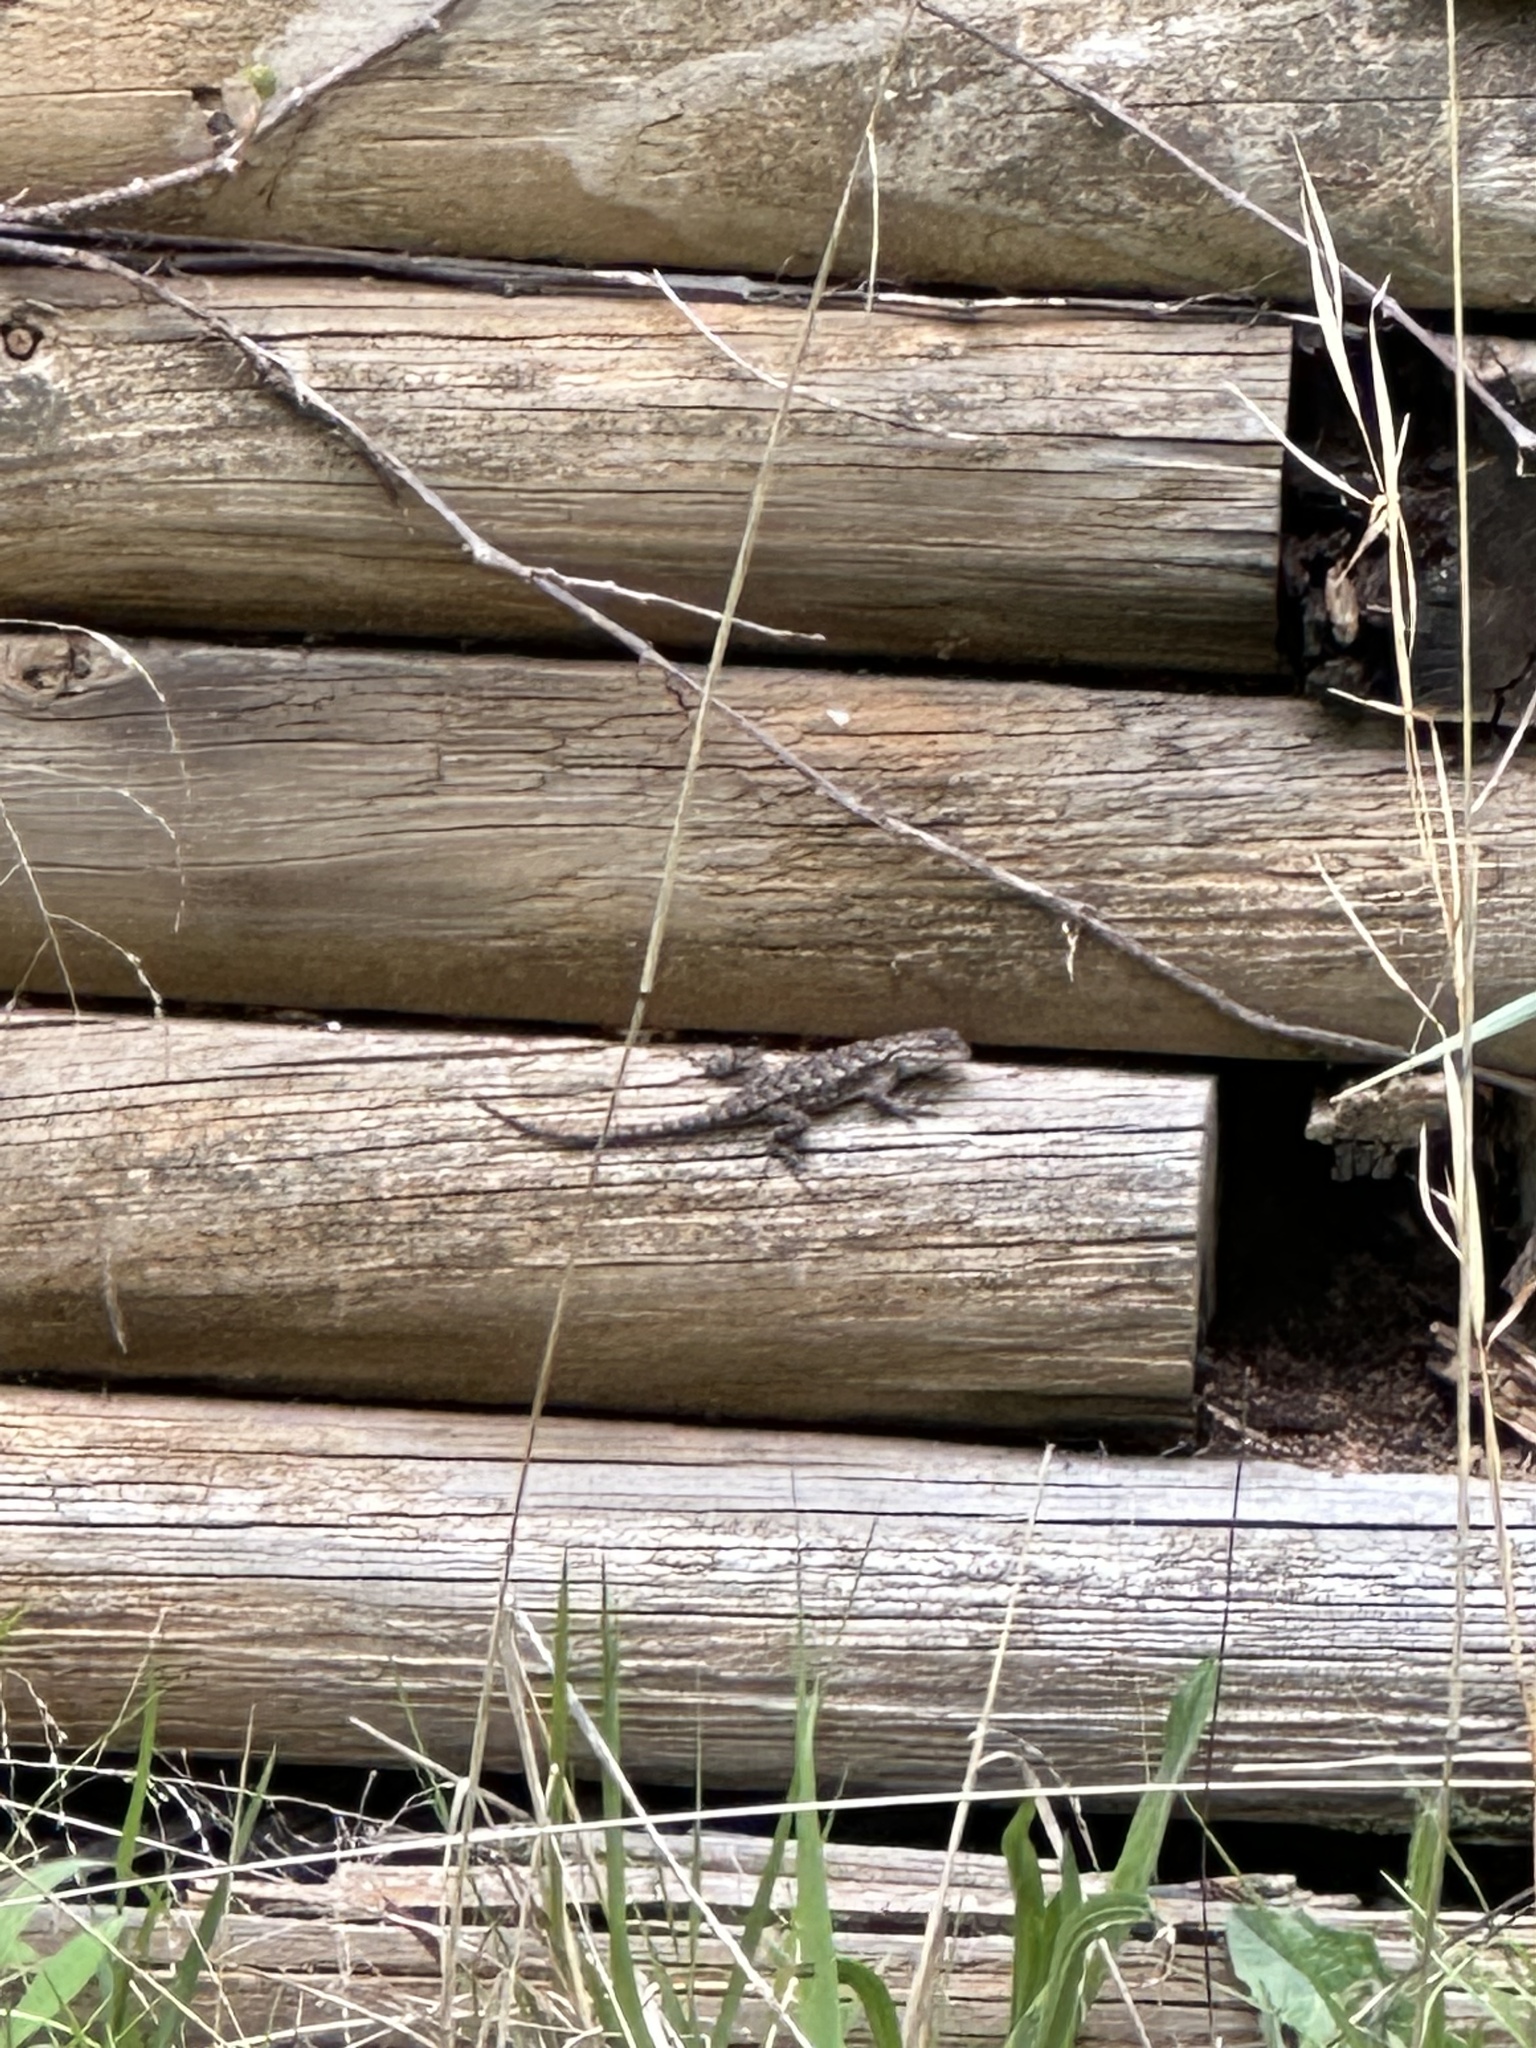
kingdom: Animalia
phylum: Chordata
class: Squamata
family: Phrynosomatidae
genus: Sceloporus
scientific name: Sceloporus undulatus
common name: Eastern fence lizard
